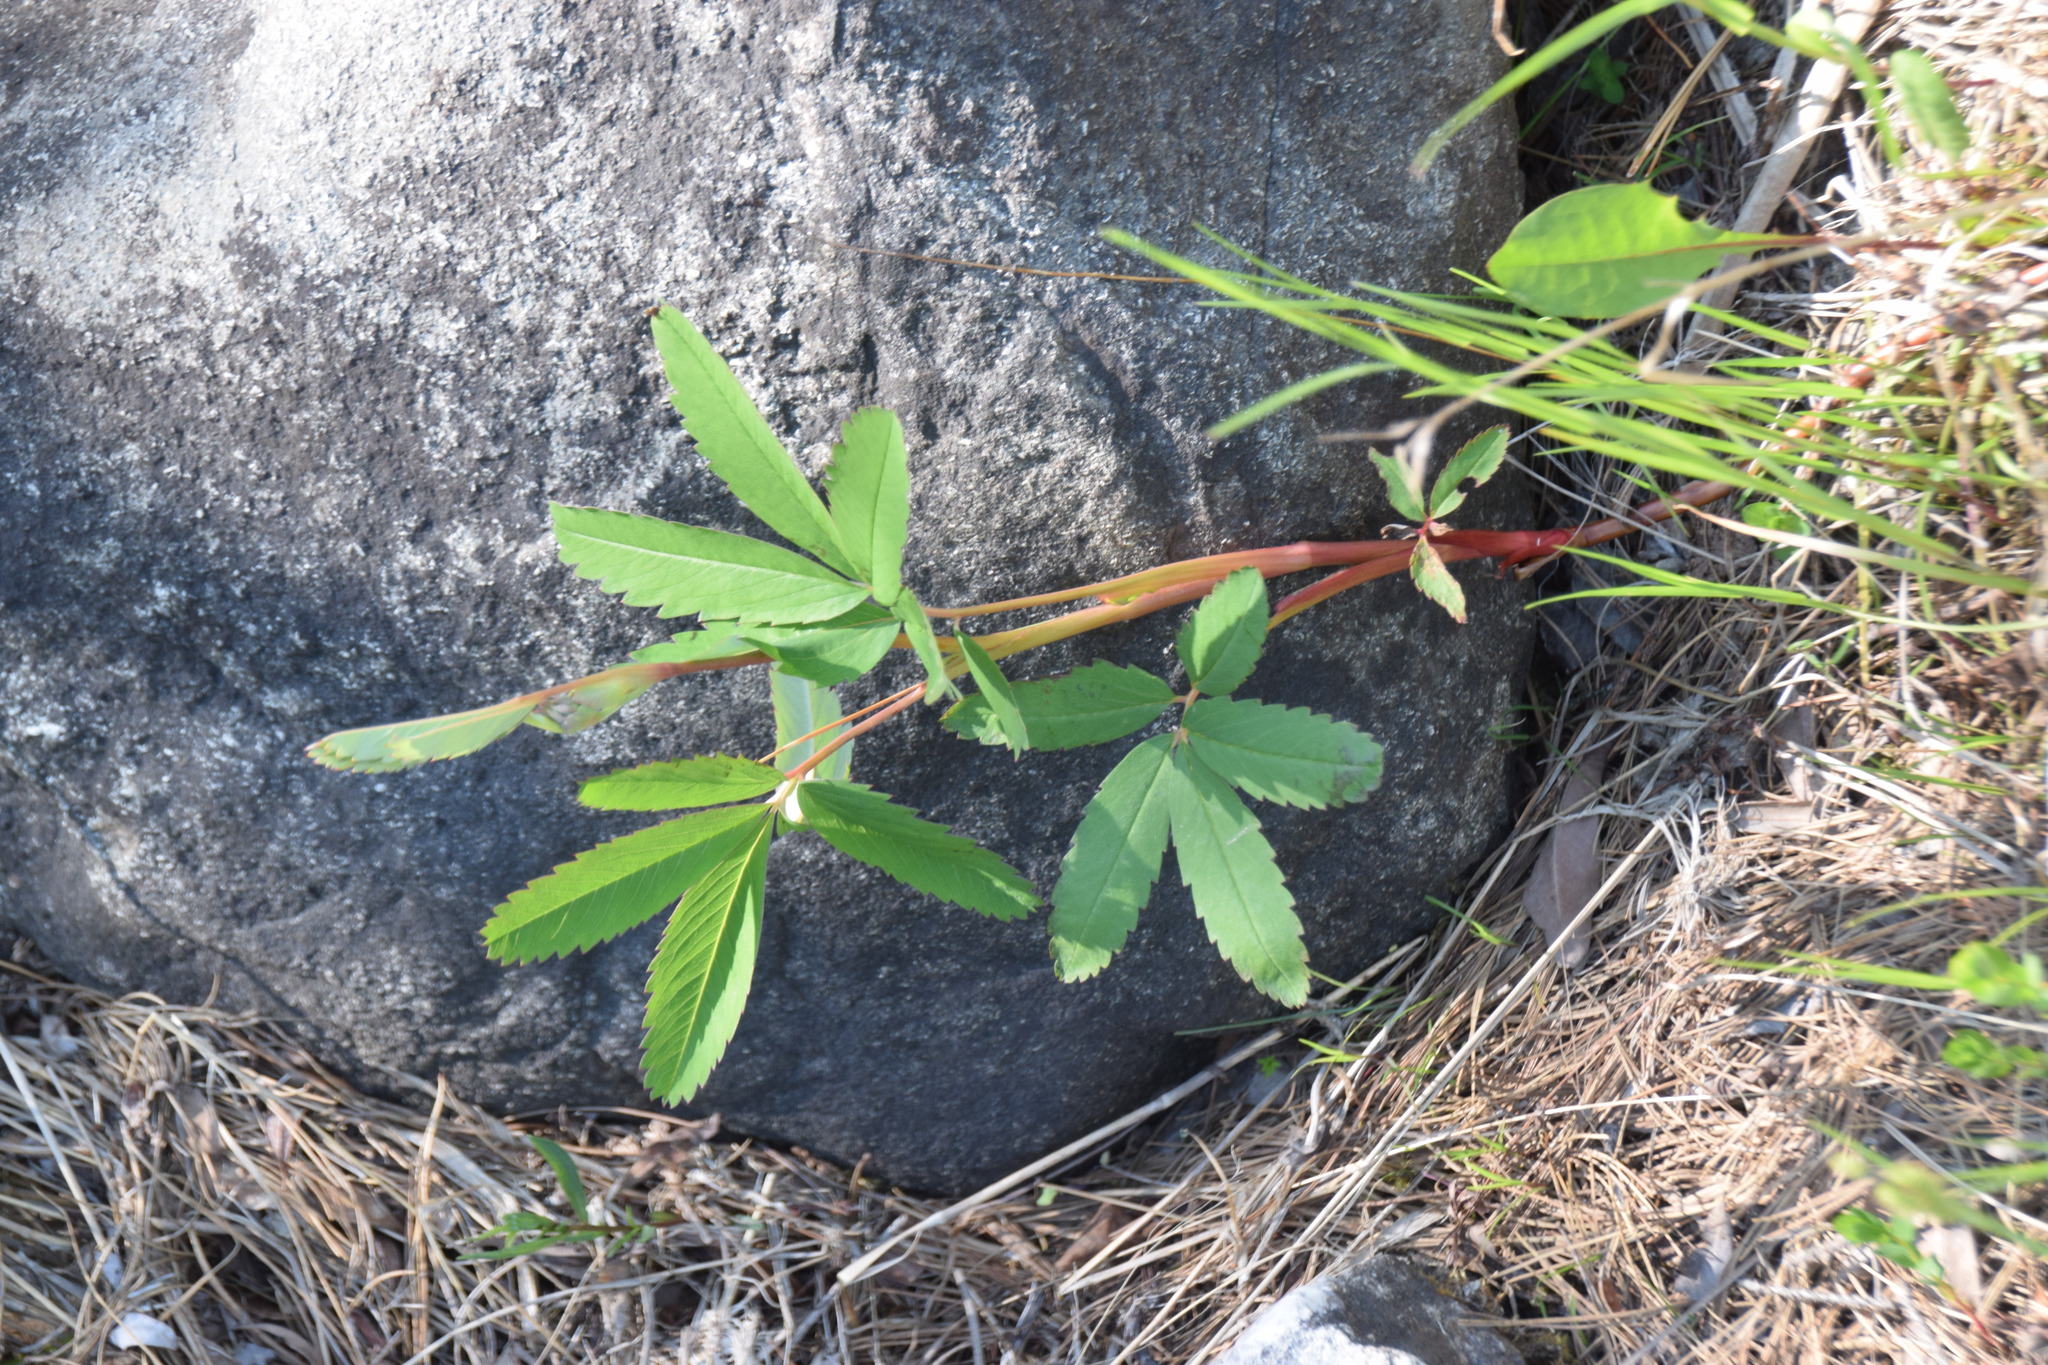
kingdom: Plantae
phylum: Tracheophyta
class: Magnoliopsida
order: Rosales
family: Rosaceae
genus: Comarum
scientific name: Comarum palustre
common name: Marsh cinquefoil
